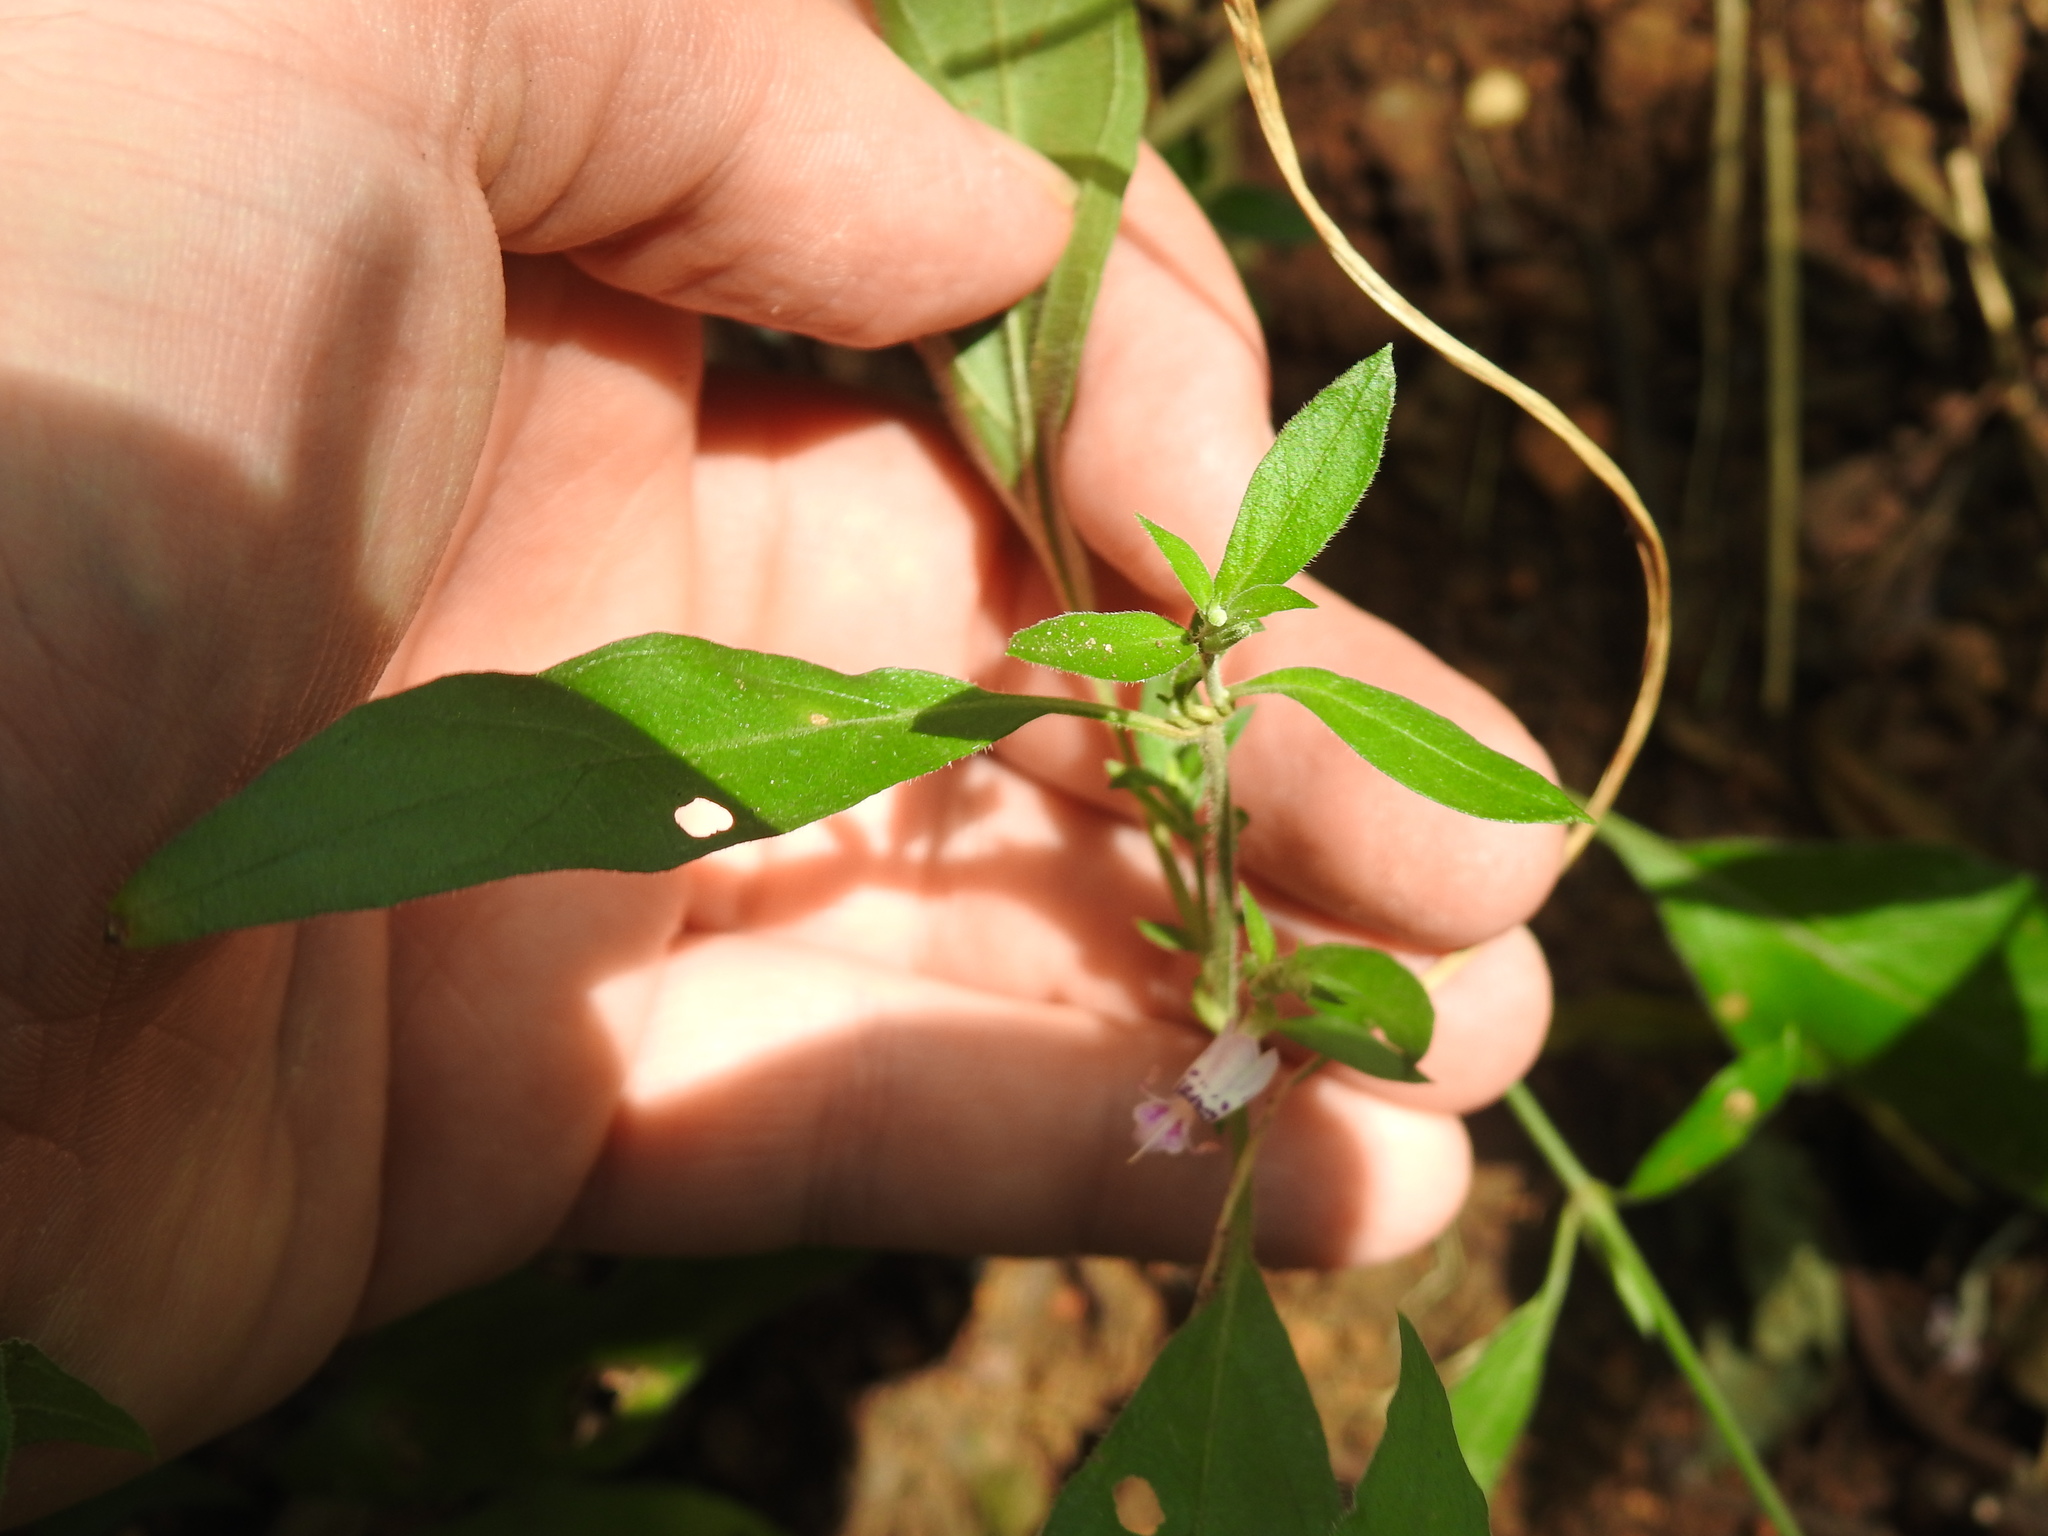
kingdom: Plantae
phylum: Tracheophyta
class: Magnoliopsida
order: Lamiales
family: Acanthaceae
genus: Hypoestes
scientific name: Hypoestes forskaolii
